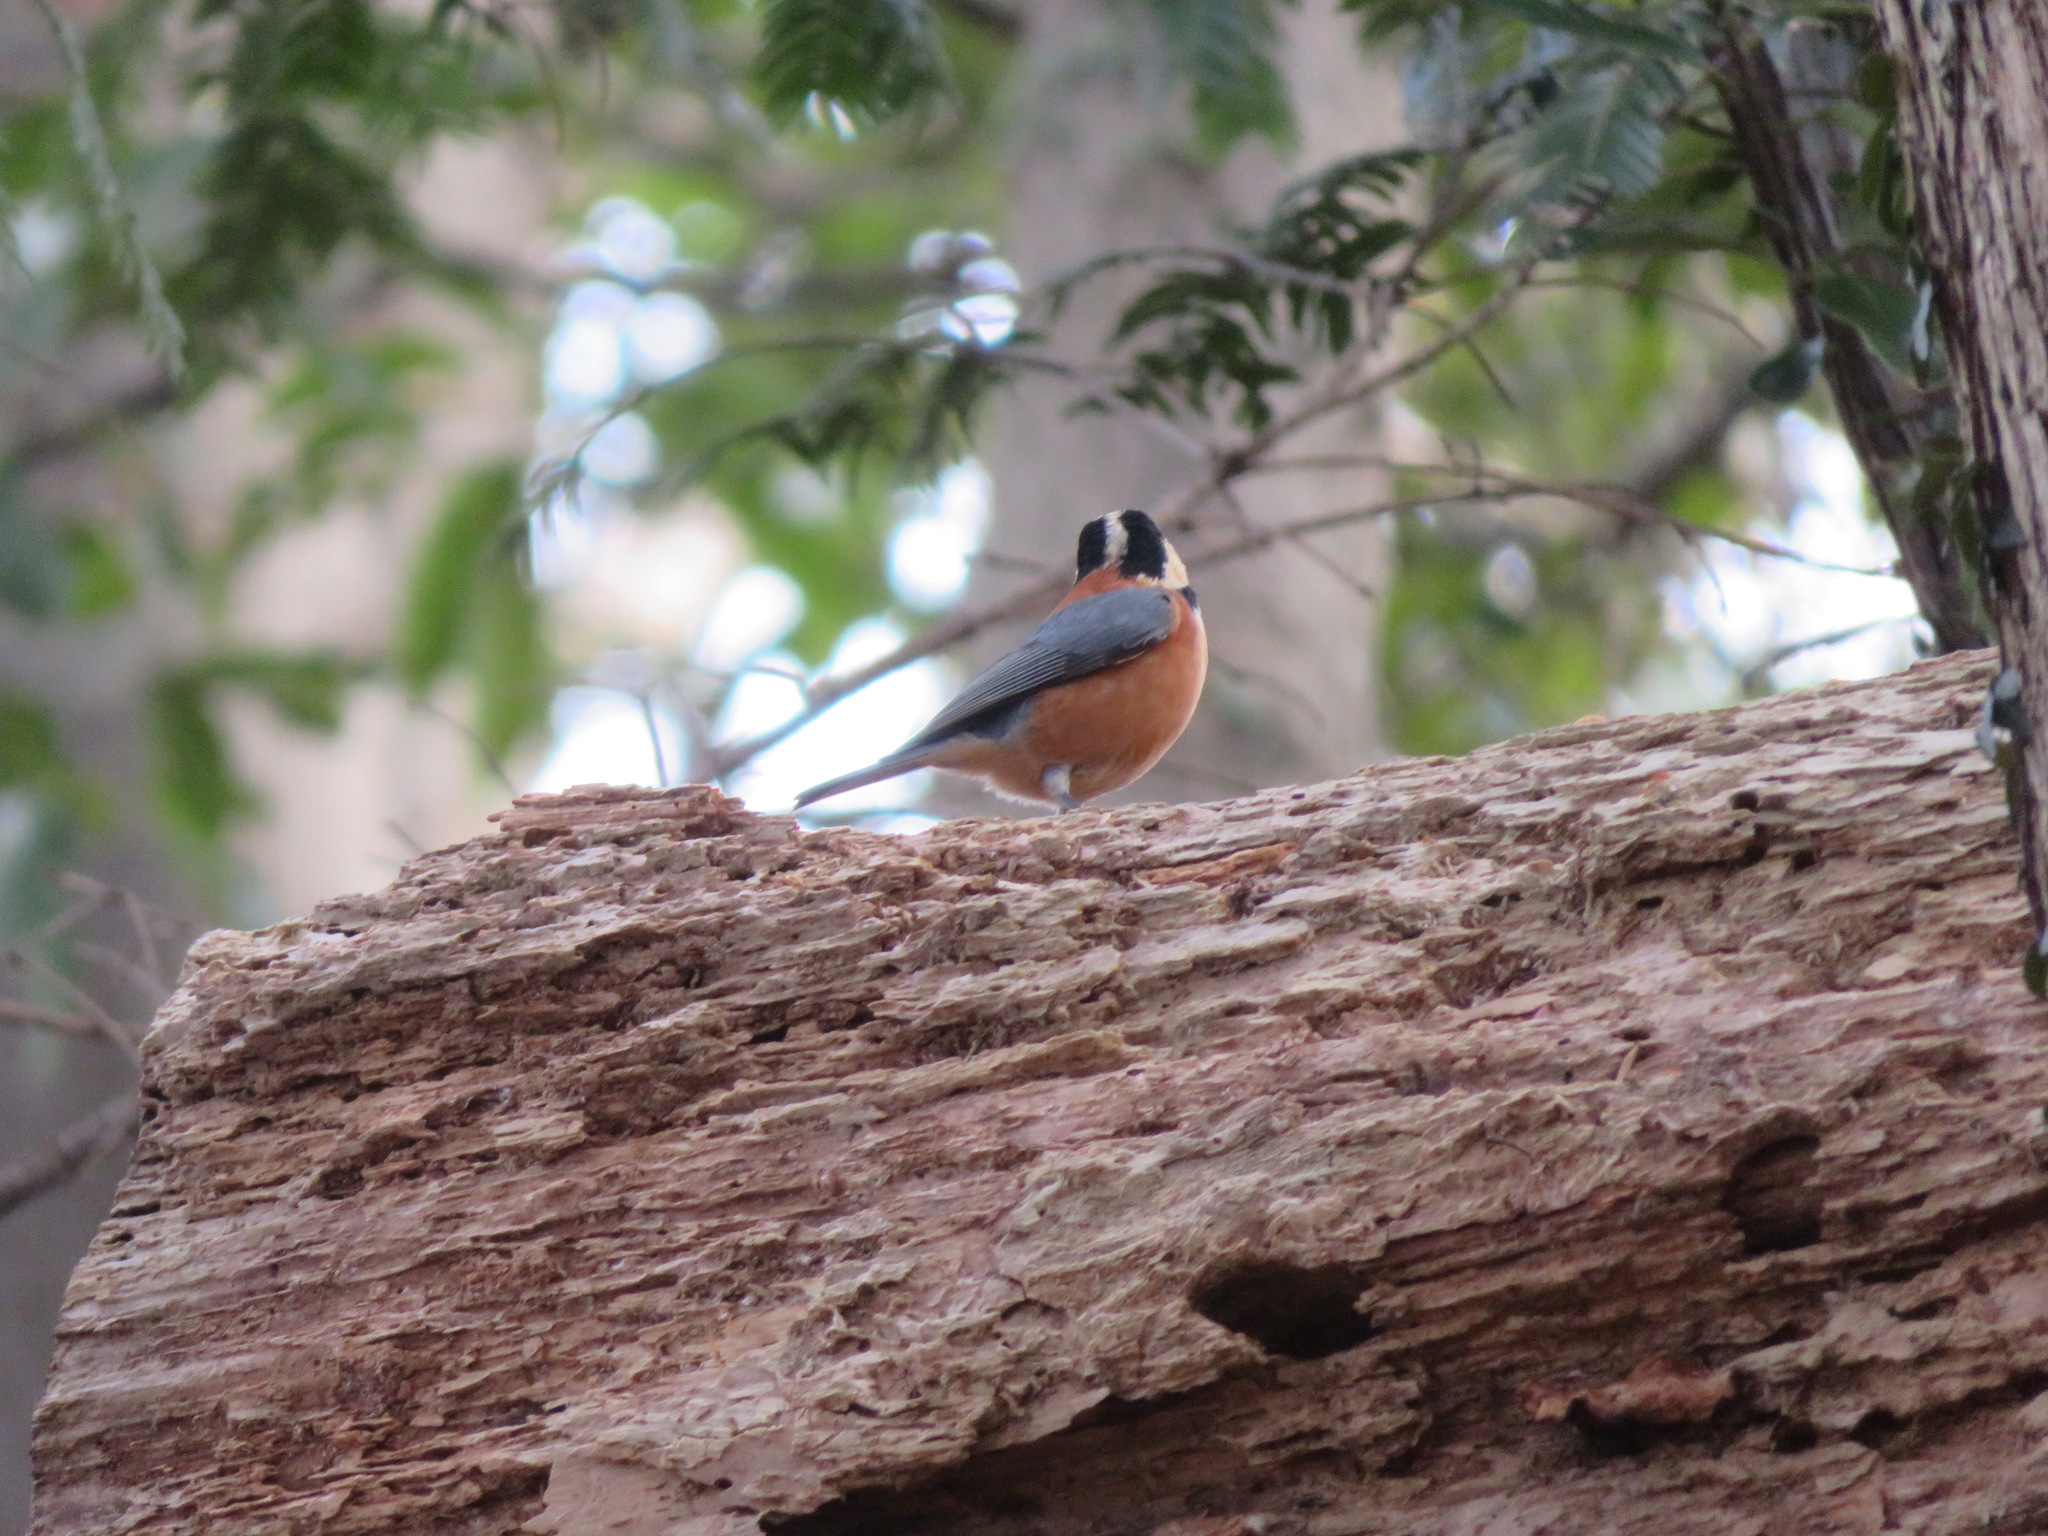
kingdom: Animalia
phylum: Chordata
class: Aves
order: Passeriformes
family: Paridae
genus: Poecile
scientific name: Poecile varius
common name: Varied tit
